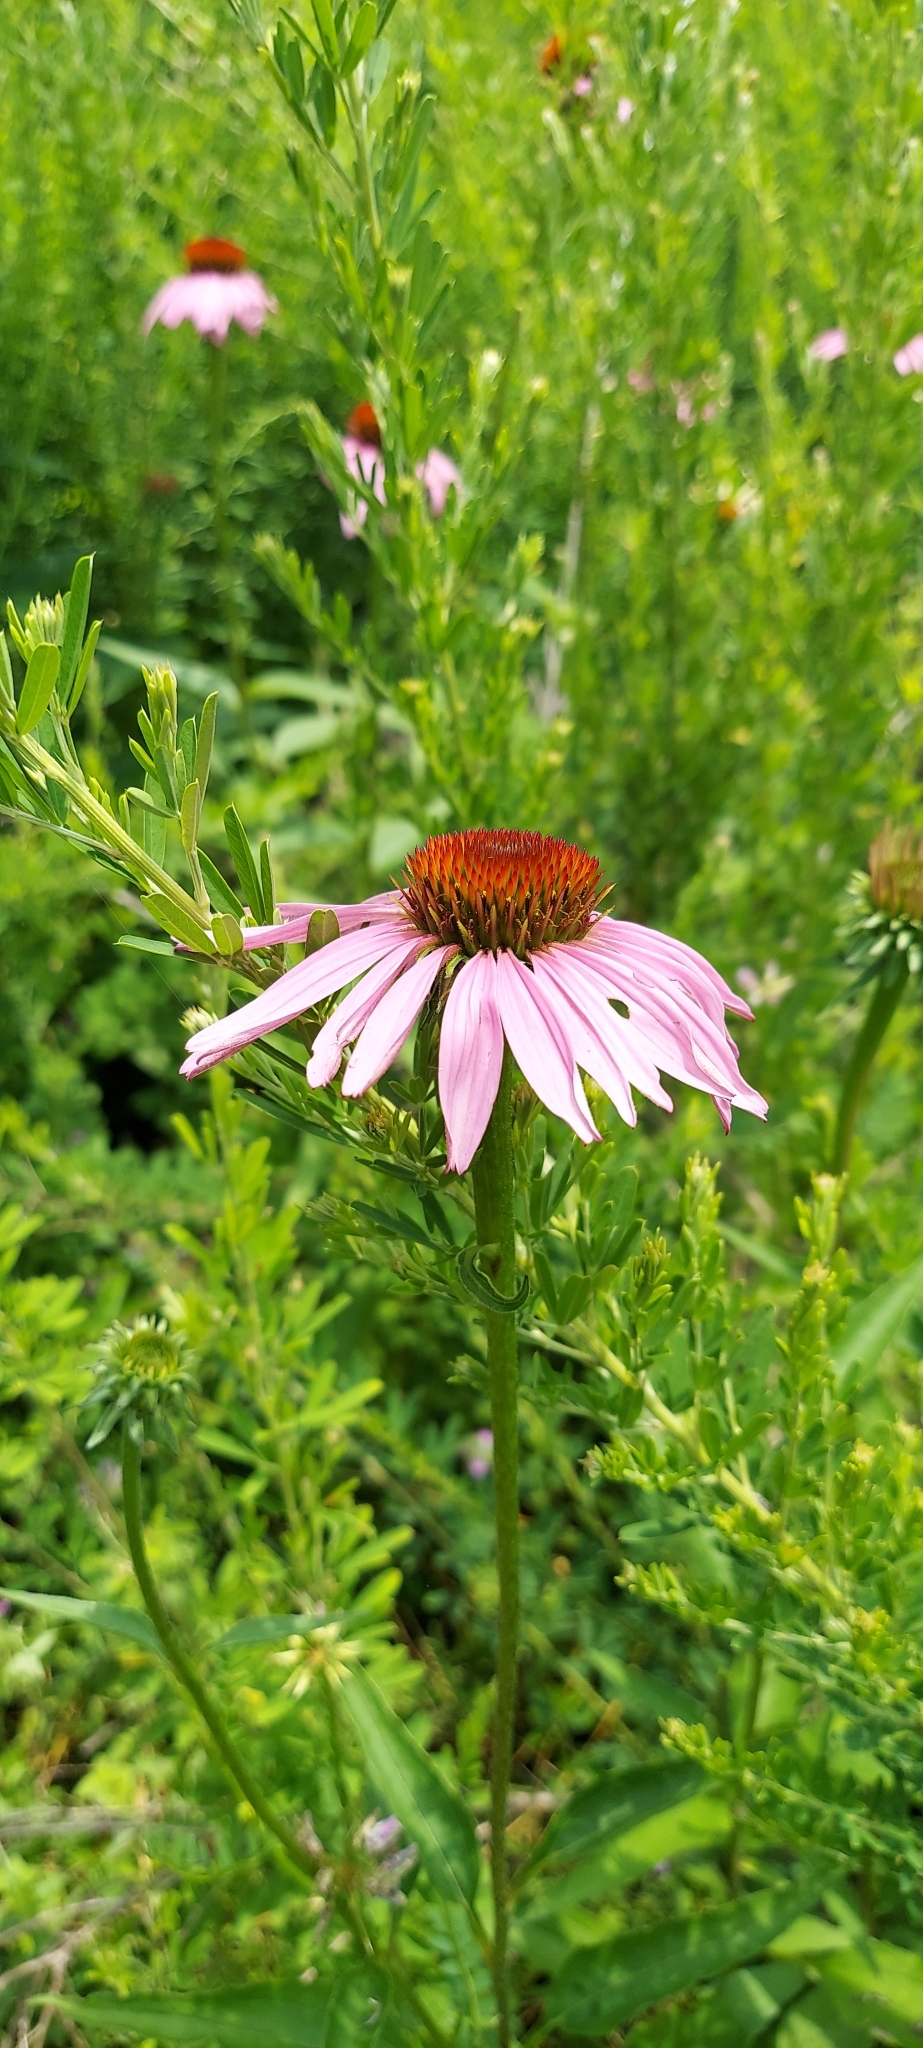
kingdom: Plantae
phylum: Tracheophyta
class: Magnoliopsida
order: Asterales
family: Asteraceae
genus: Echinacea
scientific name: Echinacea purpurea
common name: Broad-leaved purple coneflower
